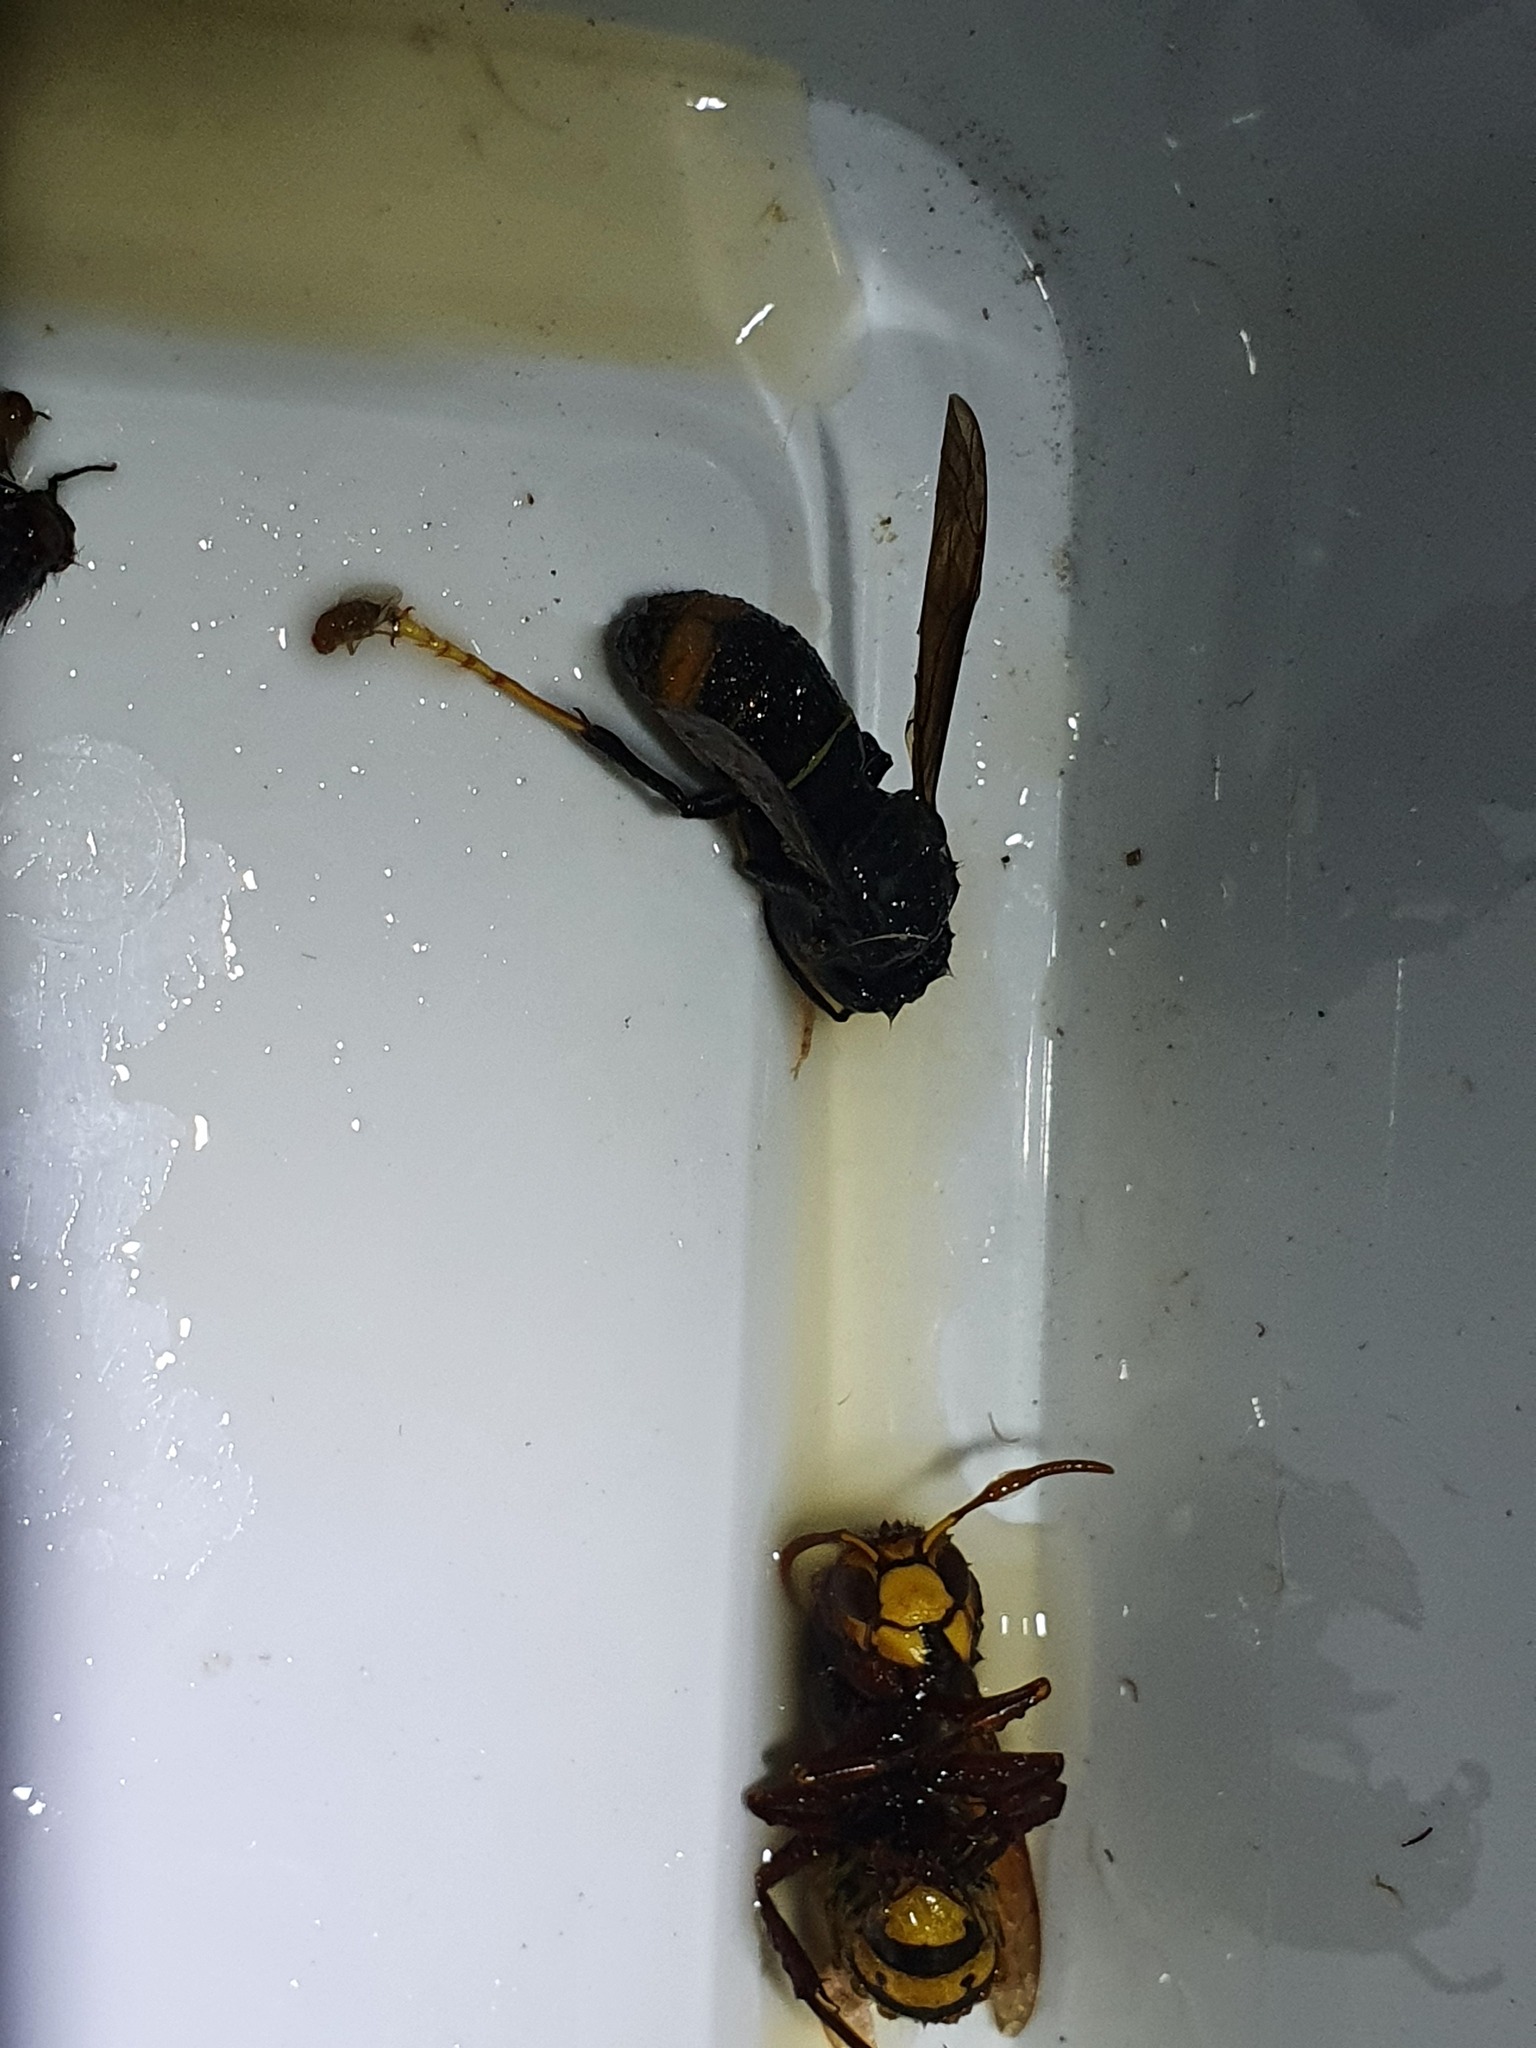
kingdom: Animalia
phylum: Arthropoda
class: Insecta
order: Hymenoptera
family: Vespidae
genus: Vespa
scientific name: Vespa velutina
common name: Asian hornet
